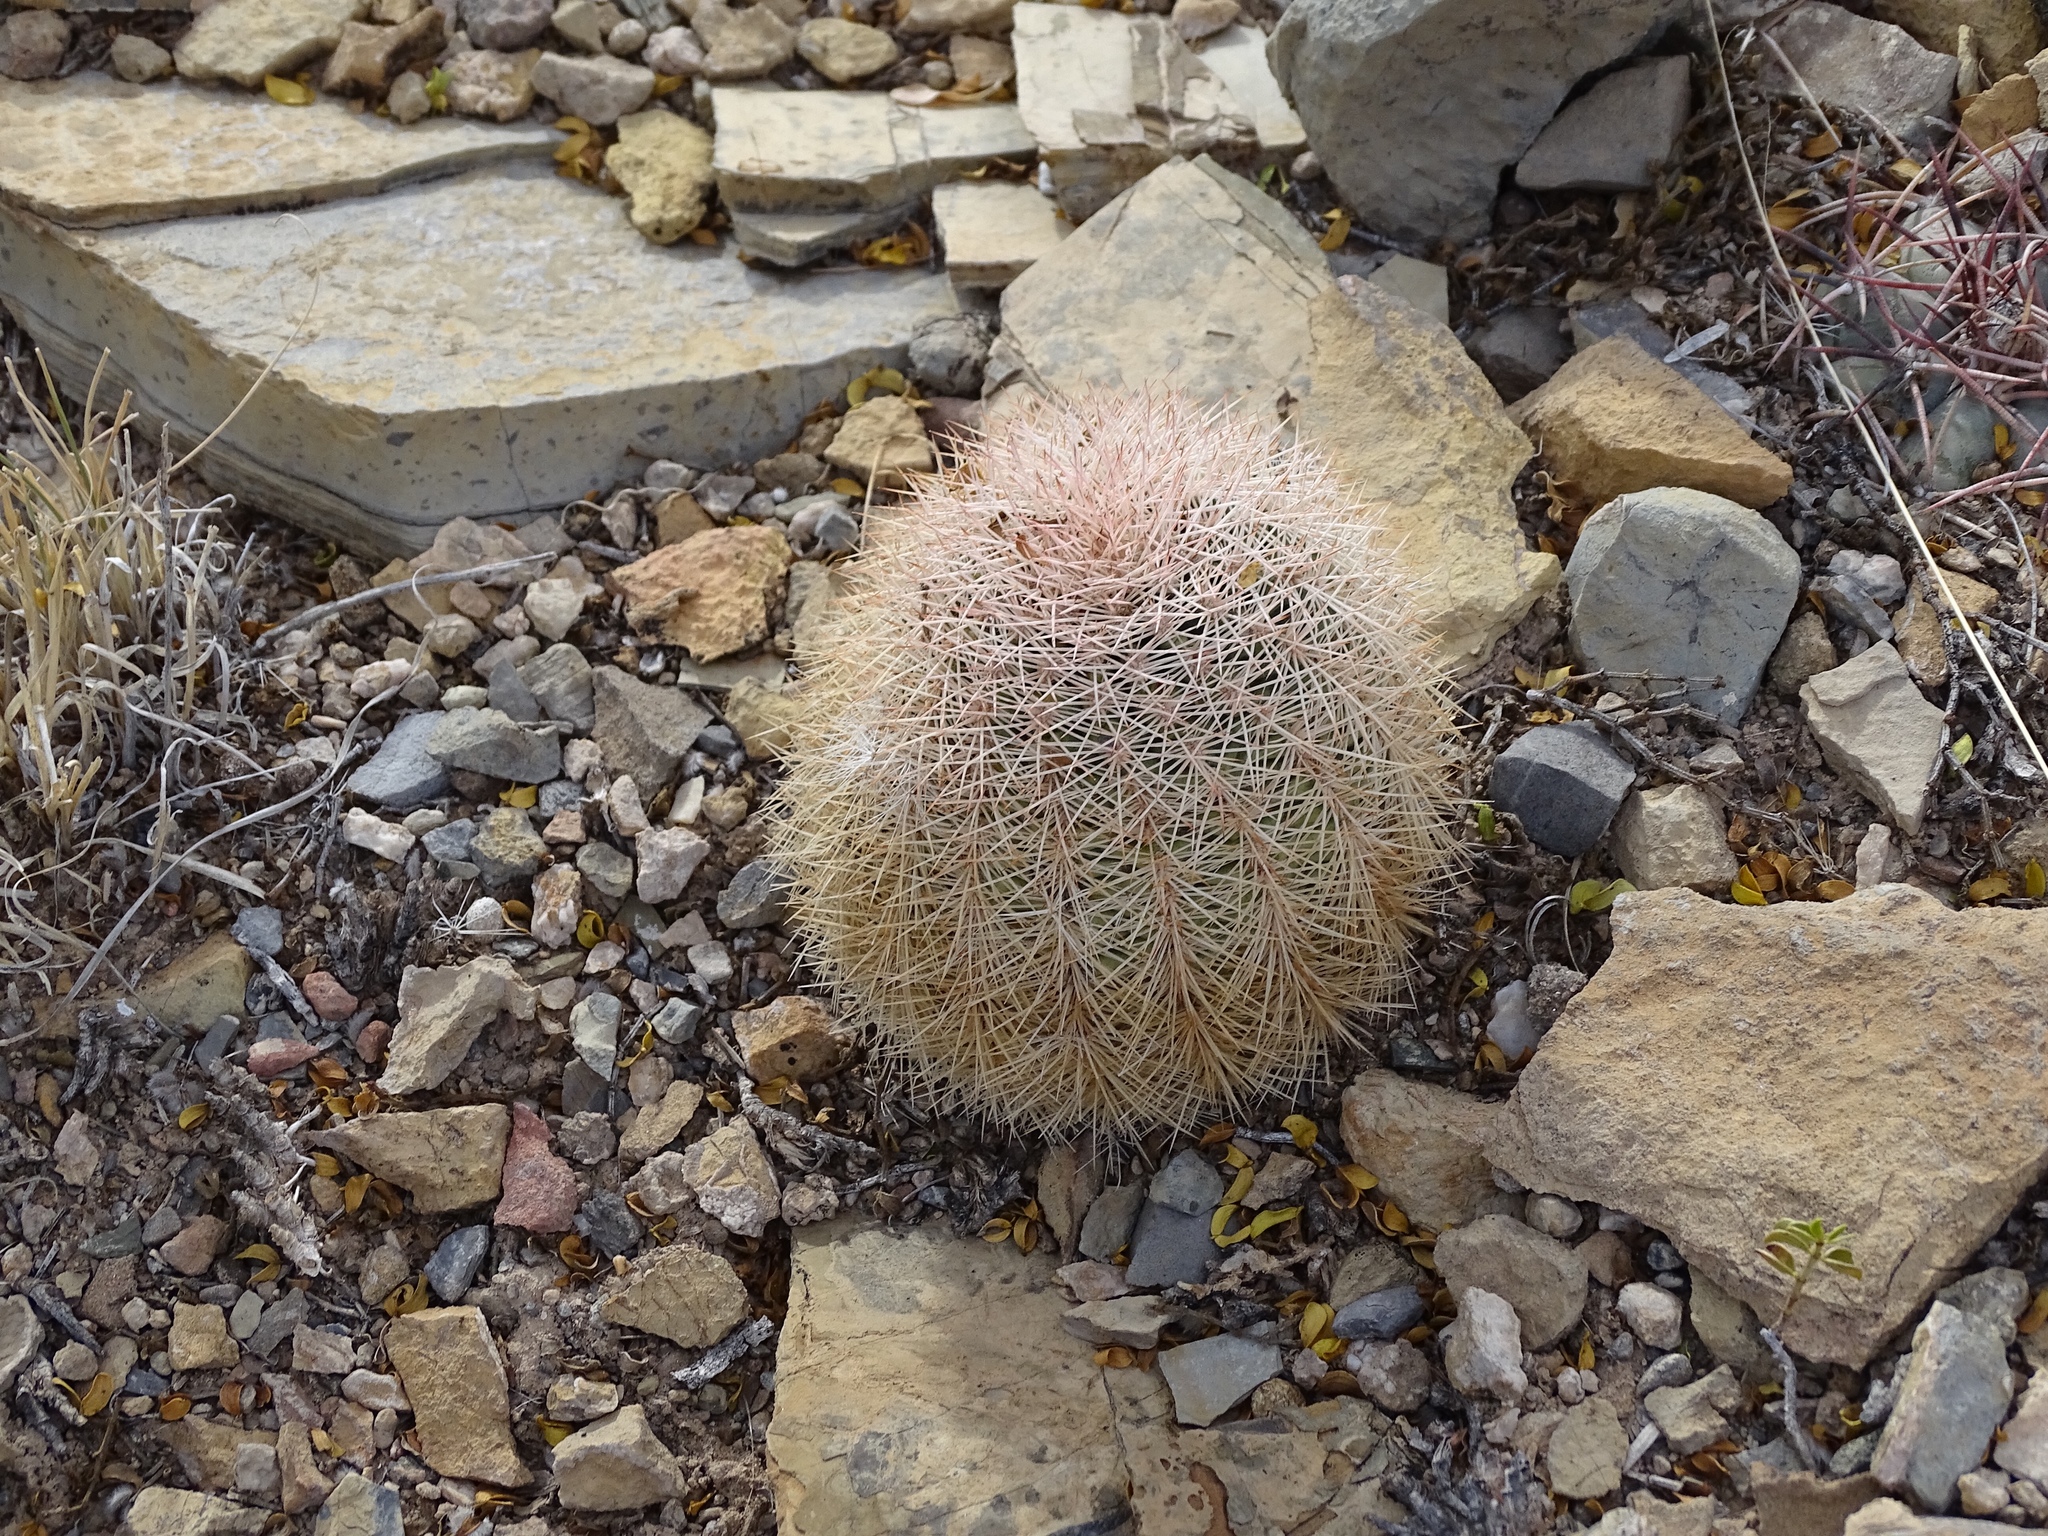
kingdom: Plantae
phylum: Tracheophyta
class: Magnoliopsida
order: Caryophyllales
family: Cactaceae
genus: Echinocereus
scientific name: Echinocereus dasyacanthus
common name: Spiny hedgehog cactus
